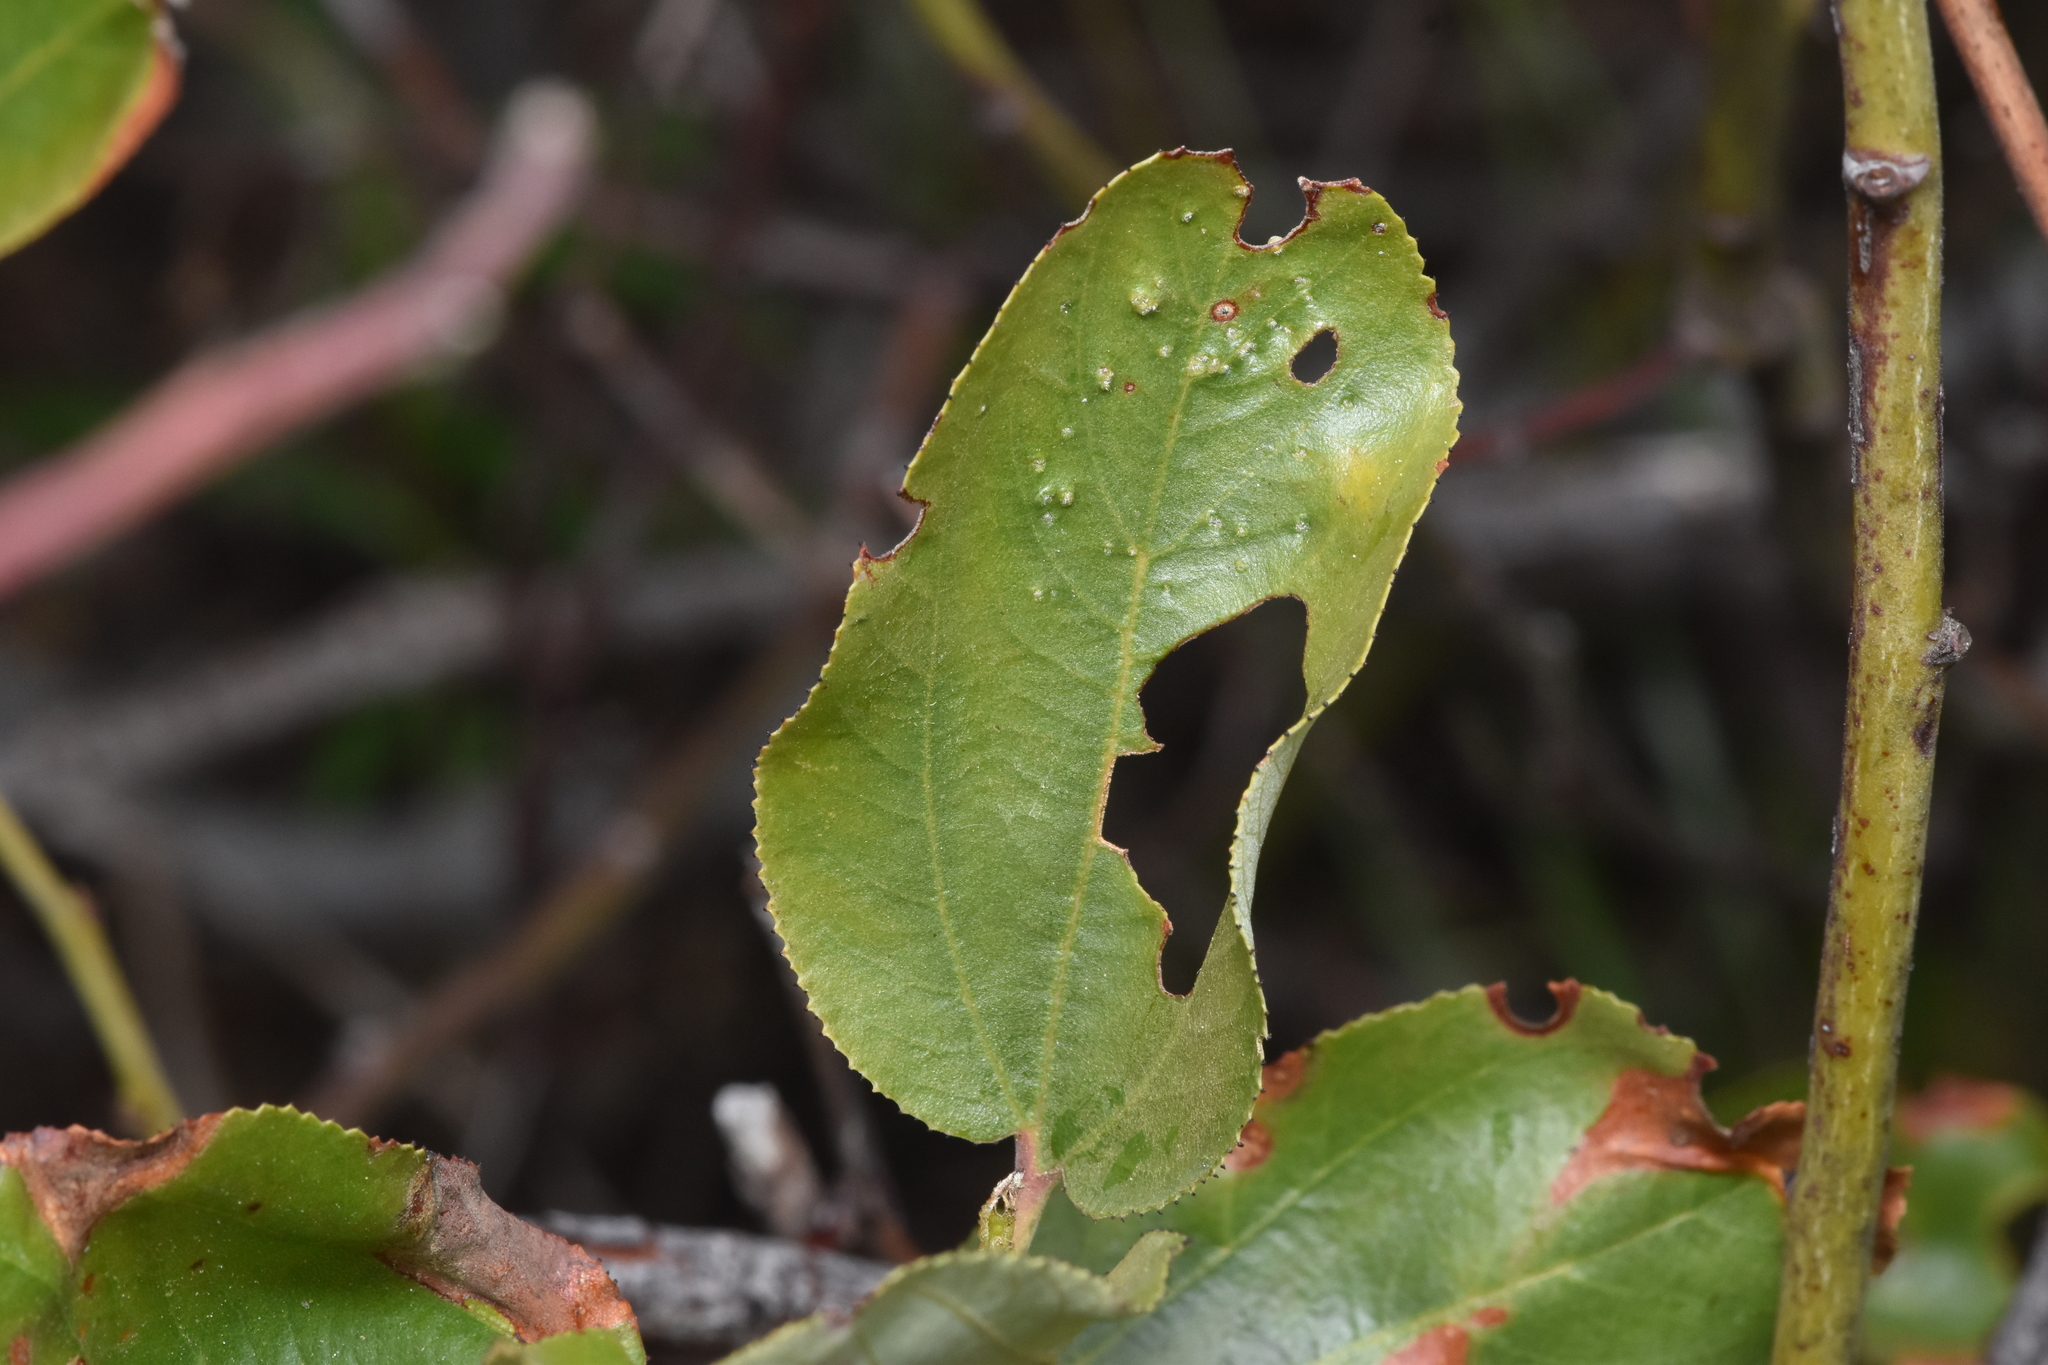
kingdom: Animalia
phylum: Arthropoda
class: Arachnida
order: Trombidiformes
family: Eriophyidae
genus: Aceria
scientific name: Aceria
